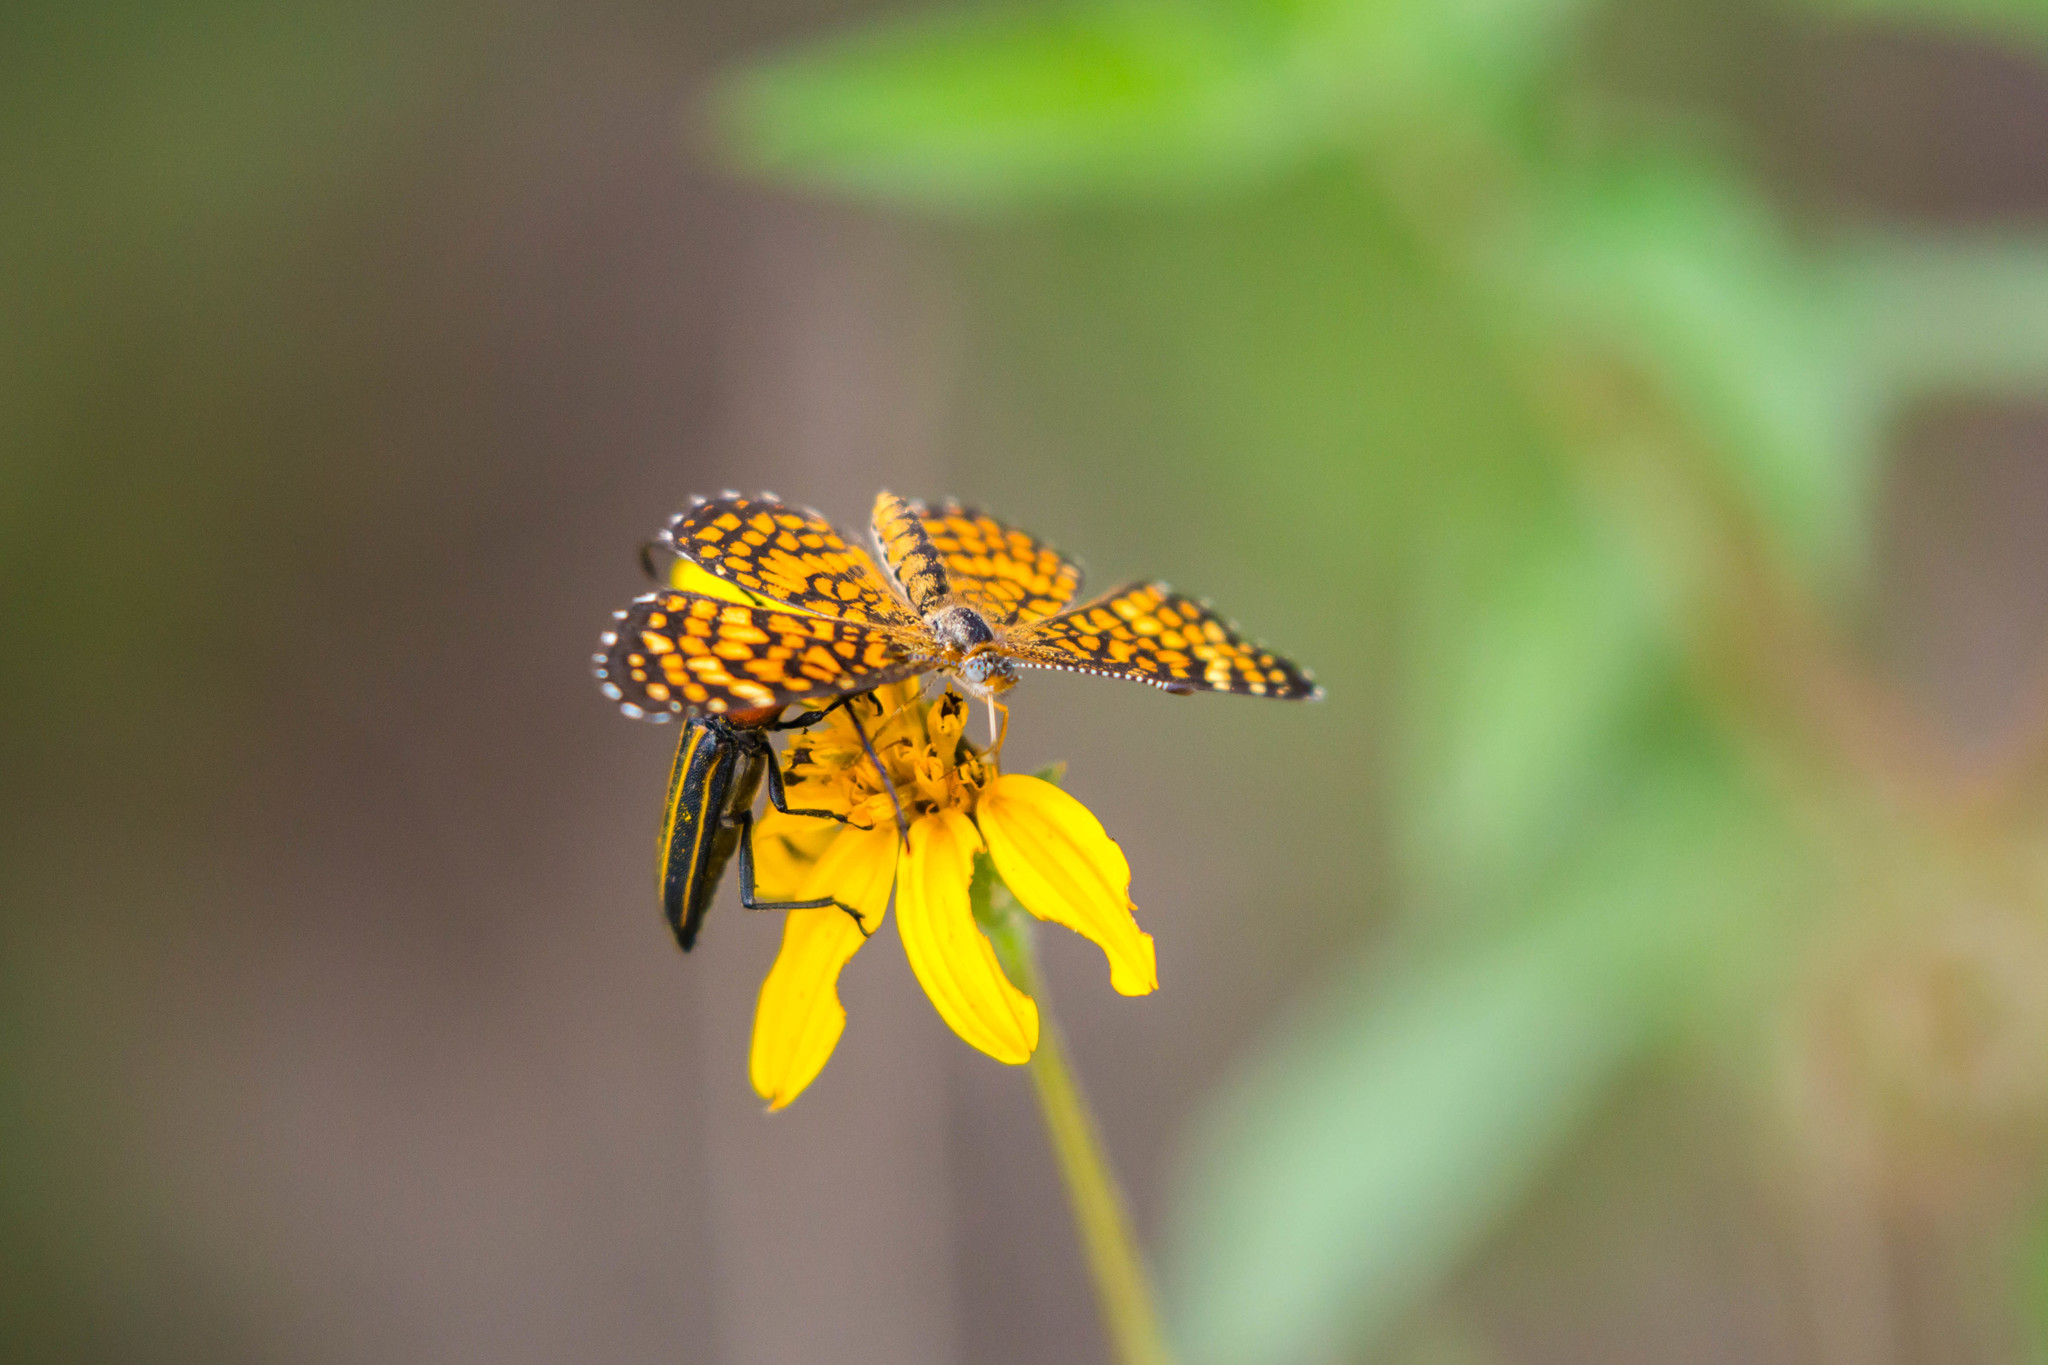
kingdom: Animalia
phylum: Arthropoda
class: Insecta
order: Lepidoptera
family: Nymphalidae
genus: Texola
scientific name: Texola elada
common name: Elada checkerspot
